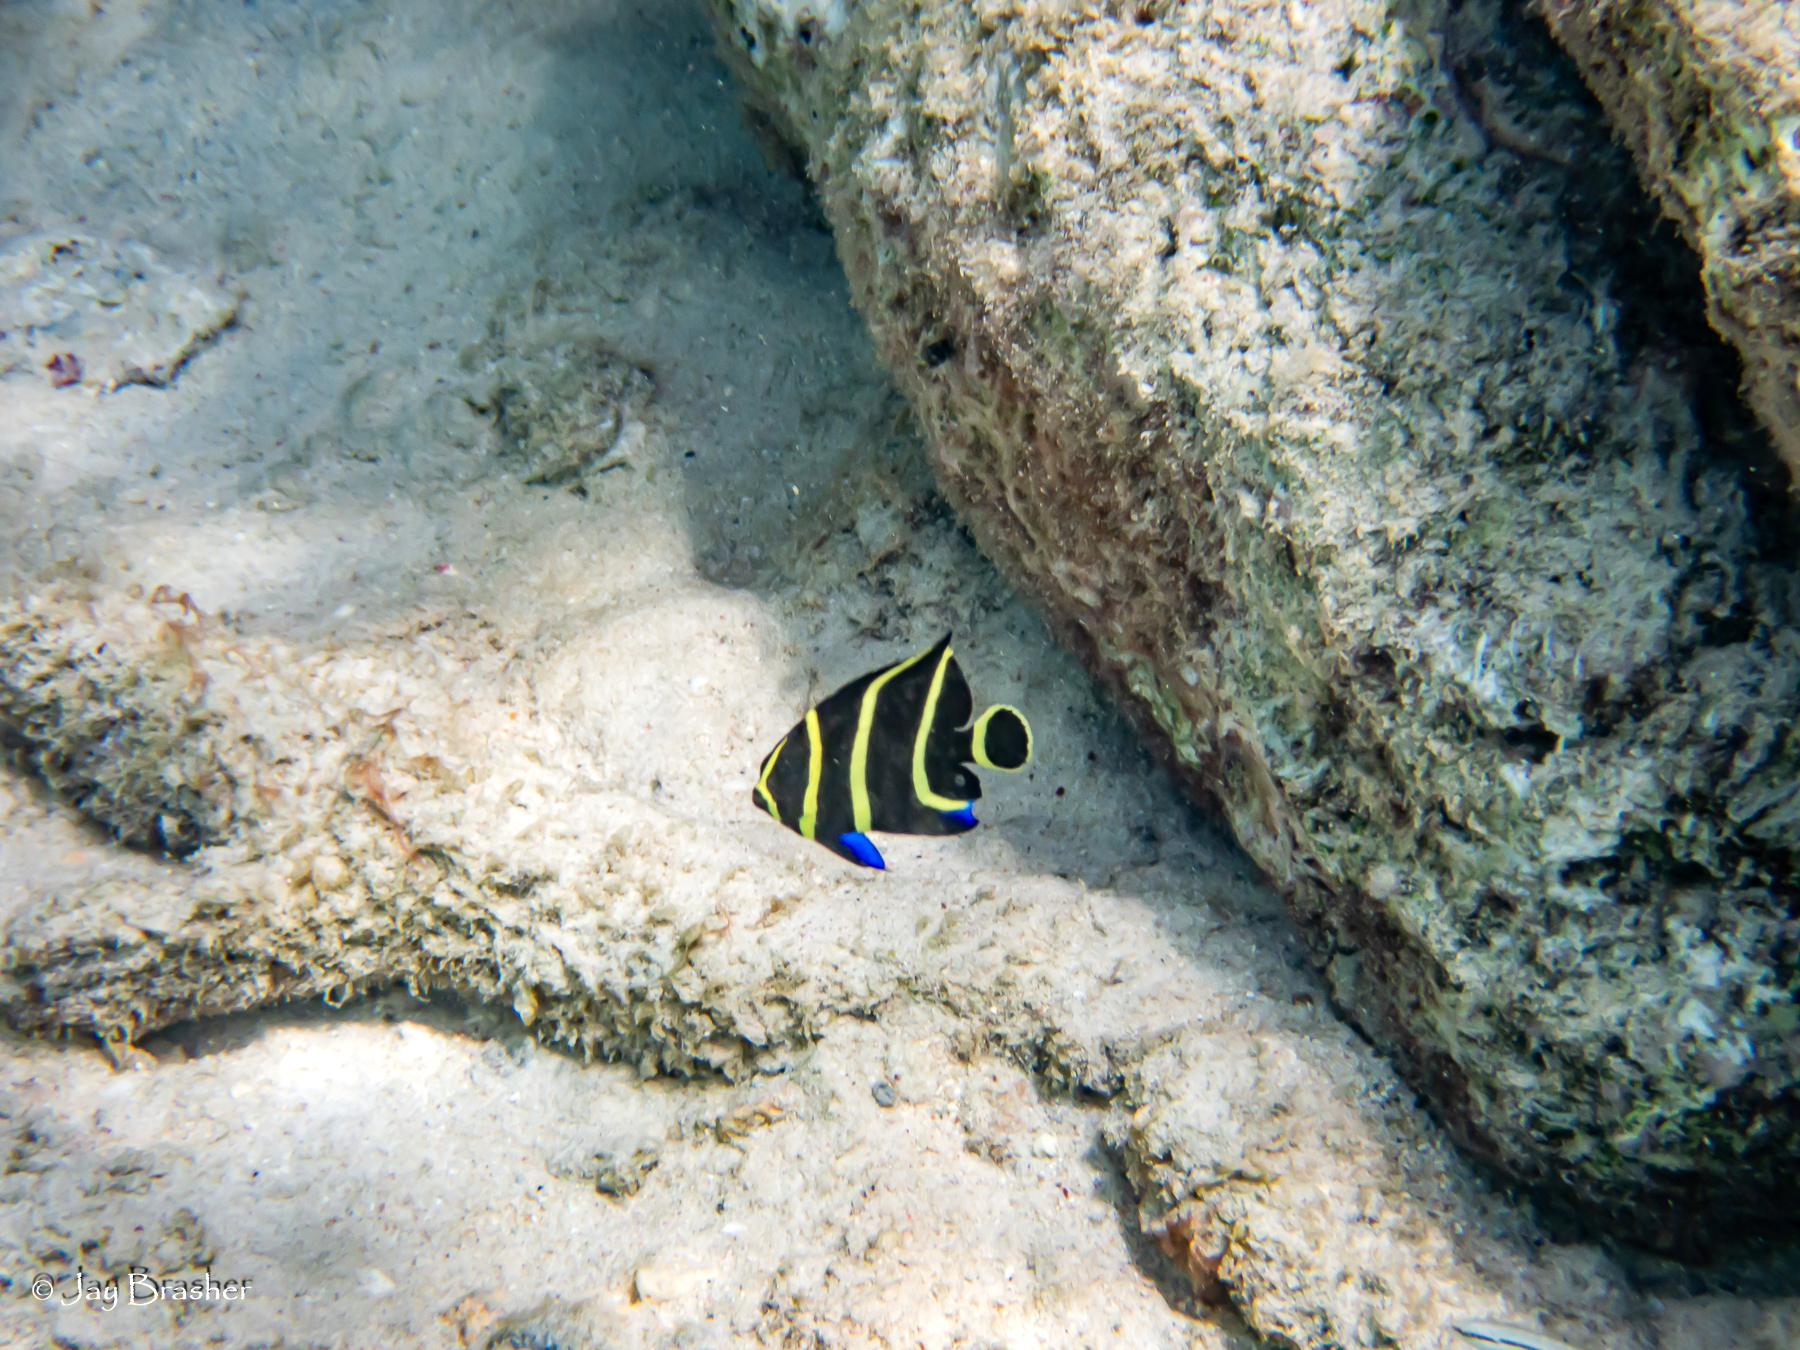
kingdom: Animalia
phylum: Chordata
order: Perciformes
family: Pomacanthidae
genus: Pomacanthus
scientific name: Pomacanthus paru
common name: French angelfish
